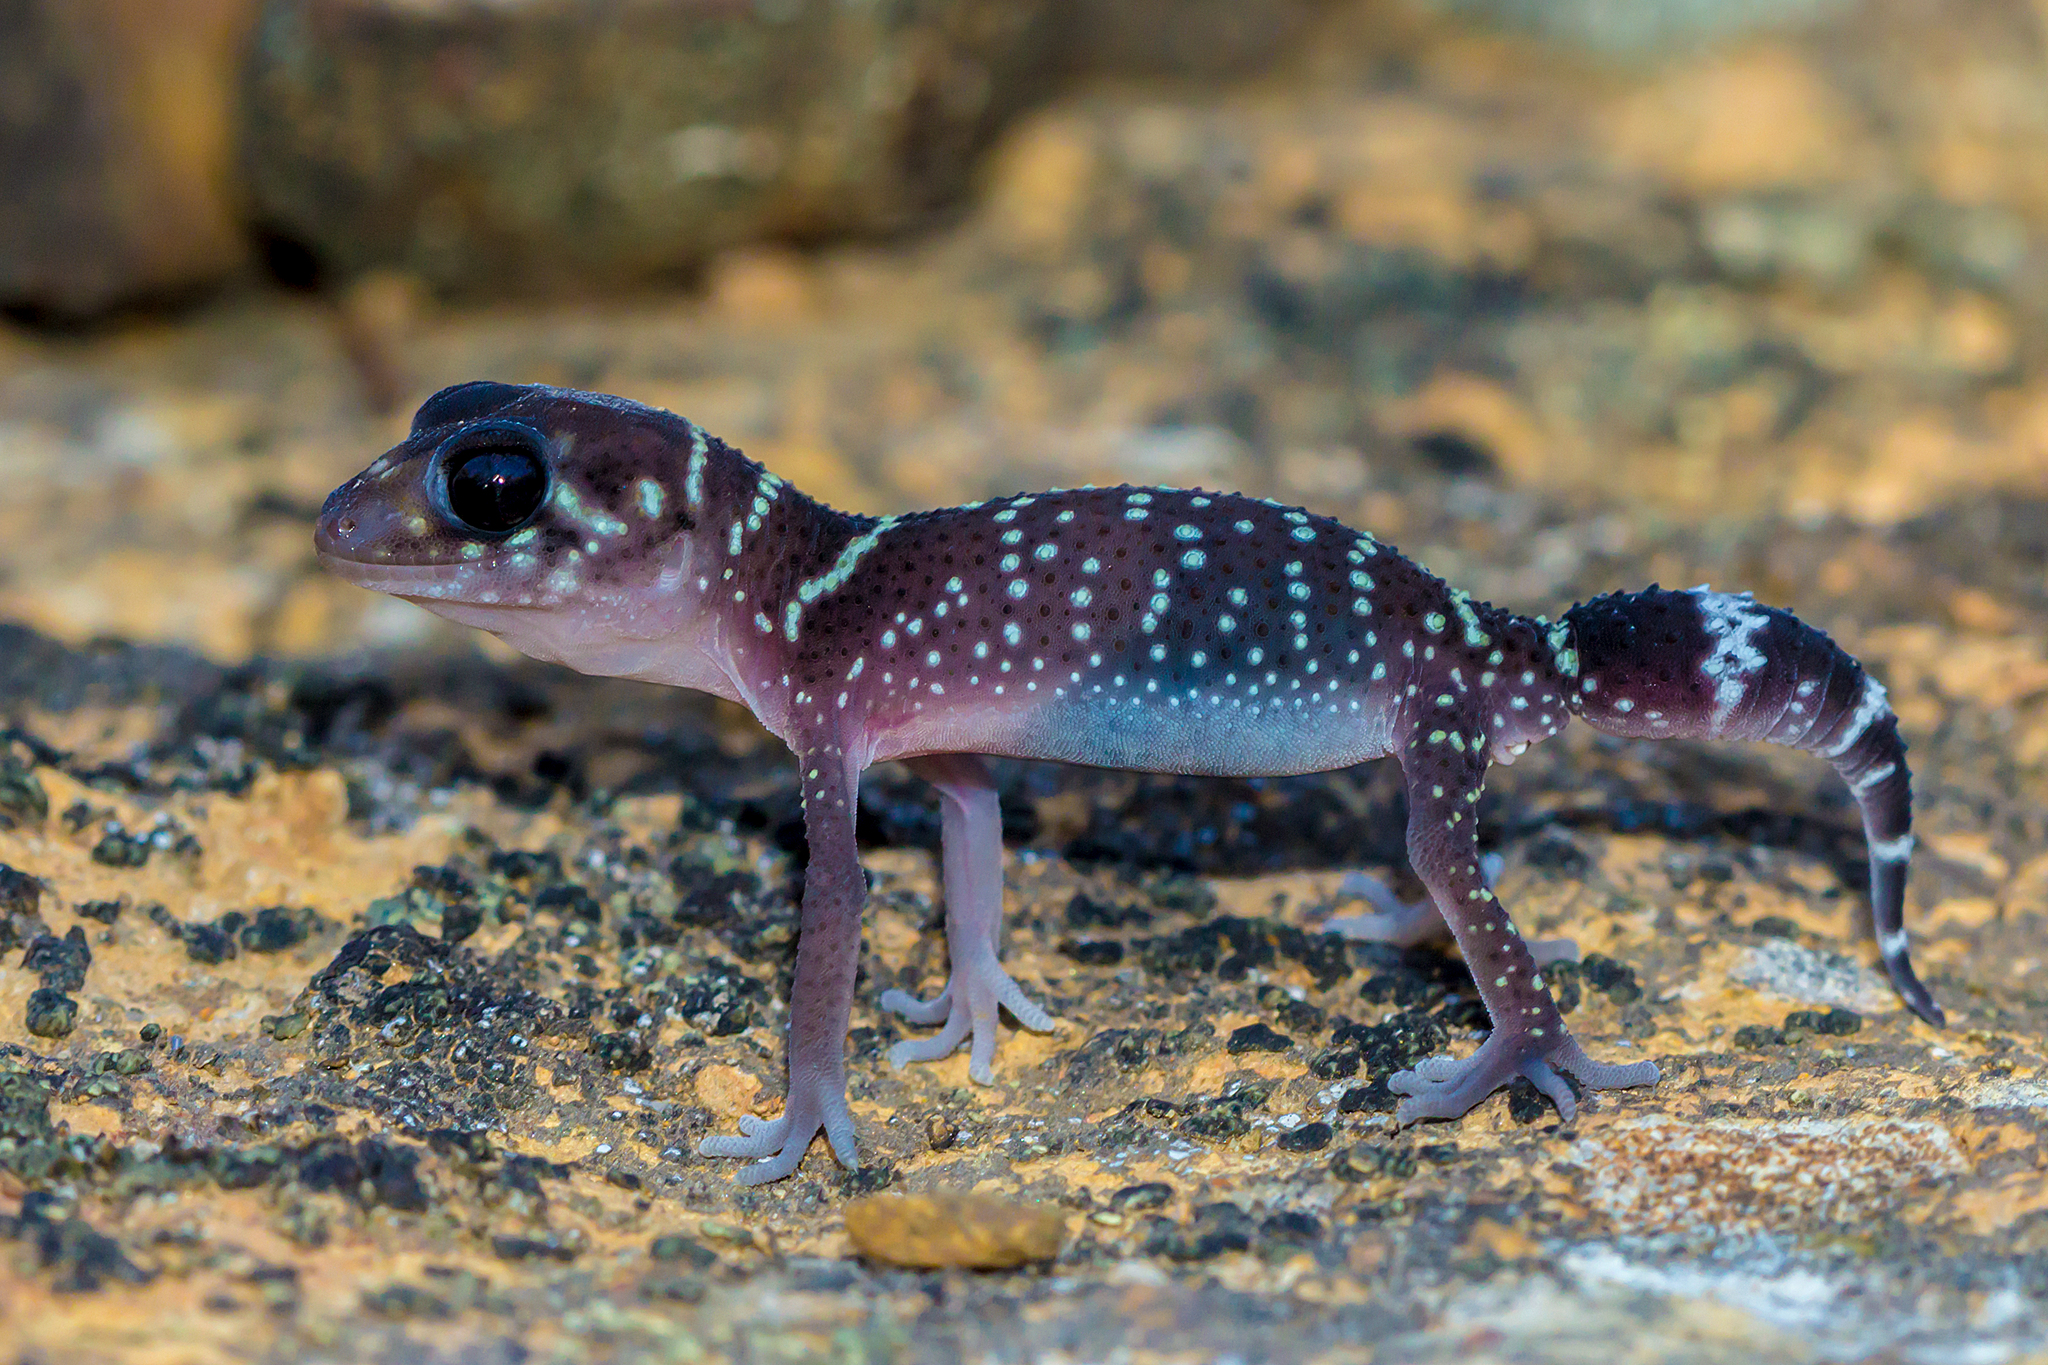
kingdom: Animalia
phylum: Chordata
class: Squamata
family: Carphodactylidae
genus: Underwoodisaurus
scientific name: Underwoodisaurus milii
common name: Barking gecko
